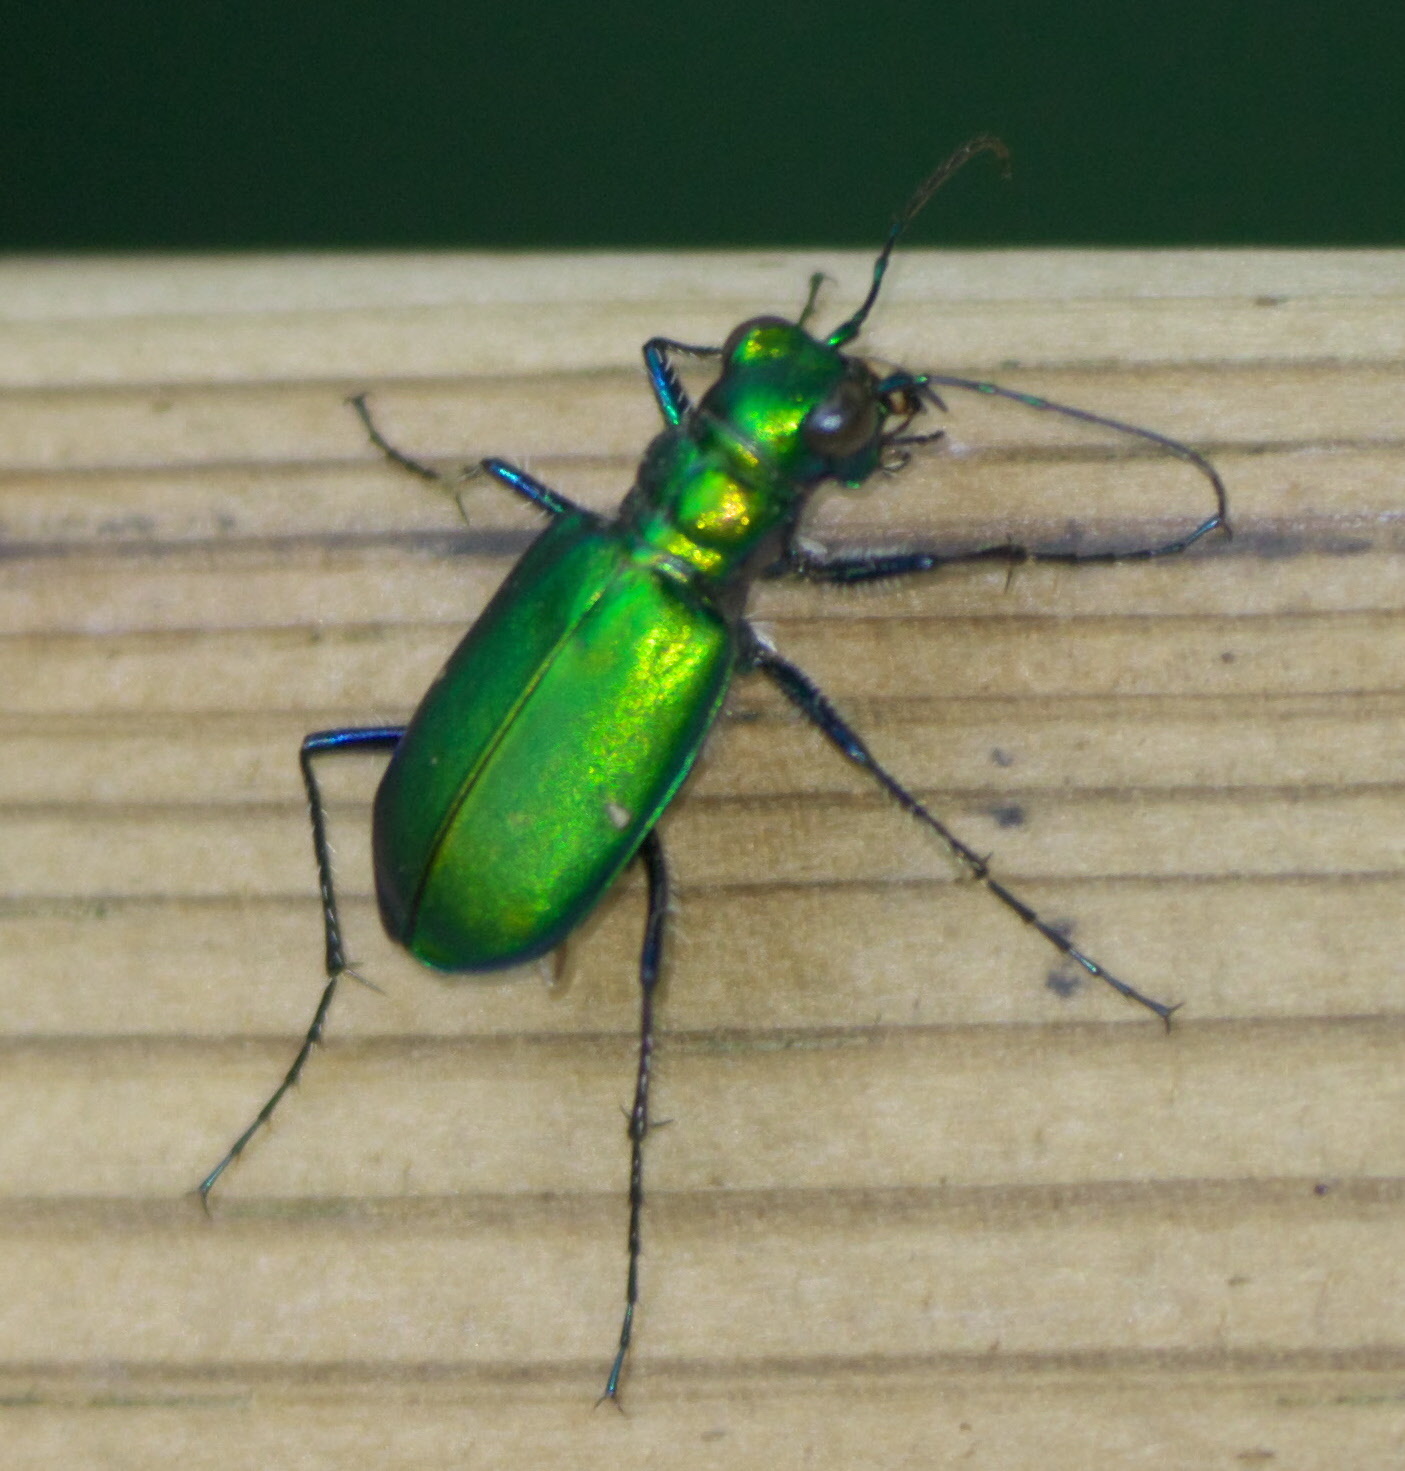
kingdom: Animalia
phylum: Arthropoda
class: Insecta
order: Coleoptera
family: Carabidae
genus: Cicindela
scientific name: Cicindela sexguttata
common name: Six-spotted tiger beetle
